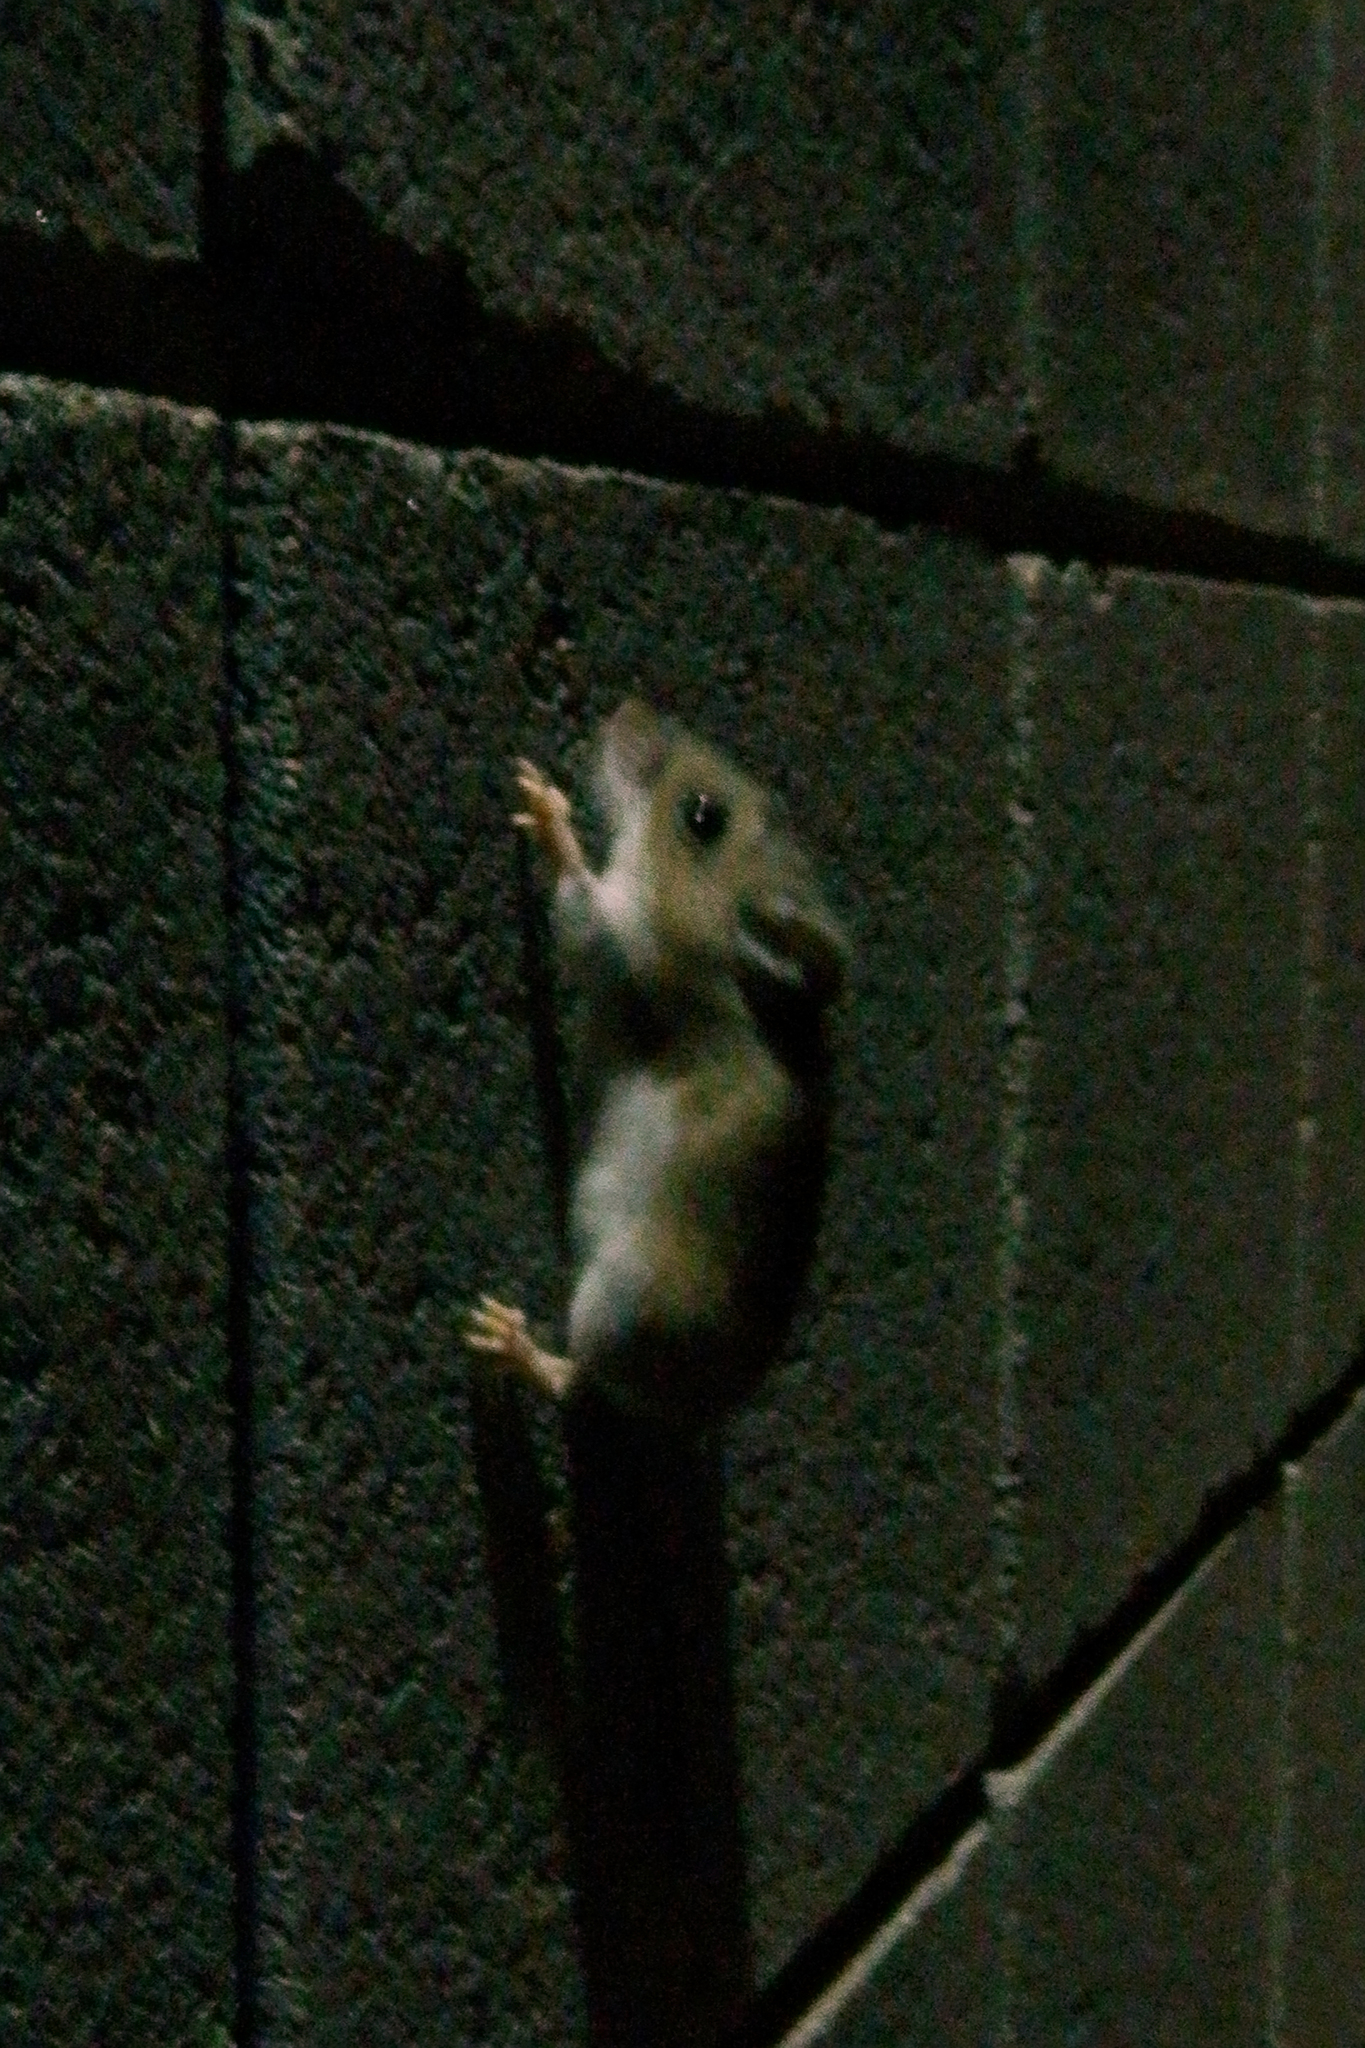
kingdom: Animalia
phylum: Chordata
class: Mammalia
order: Rodentia
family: Cricetidae
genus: Peromyscus
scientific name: Peromyscus
